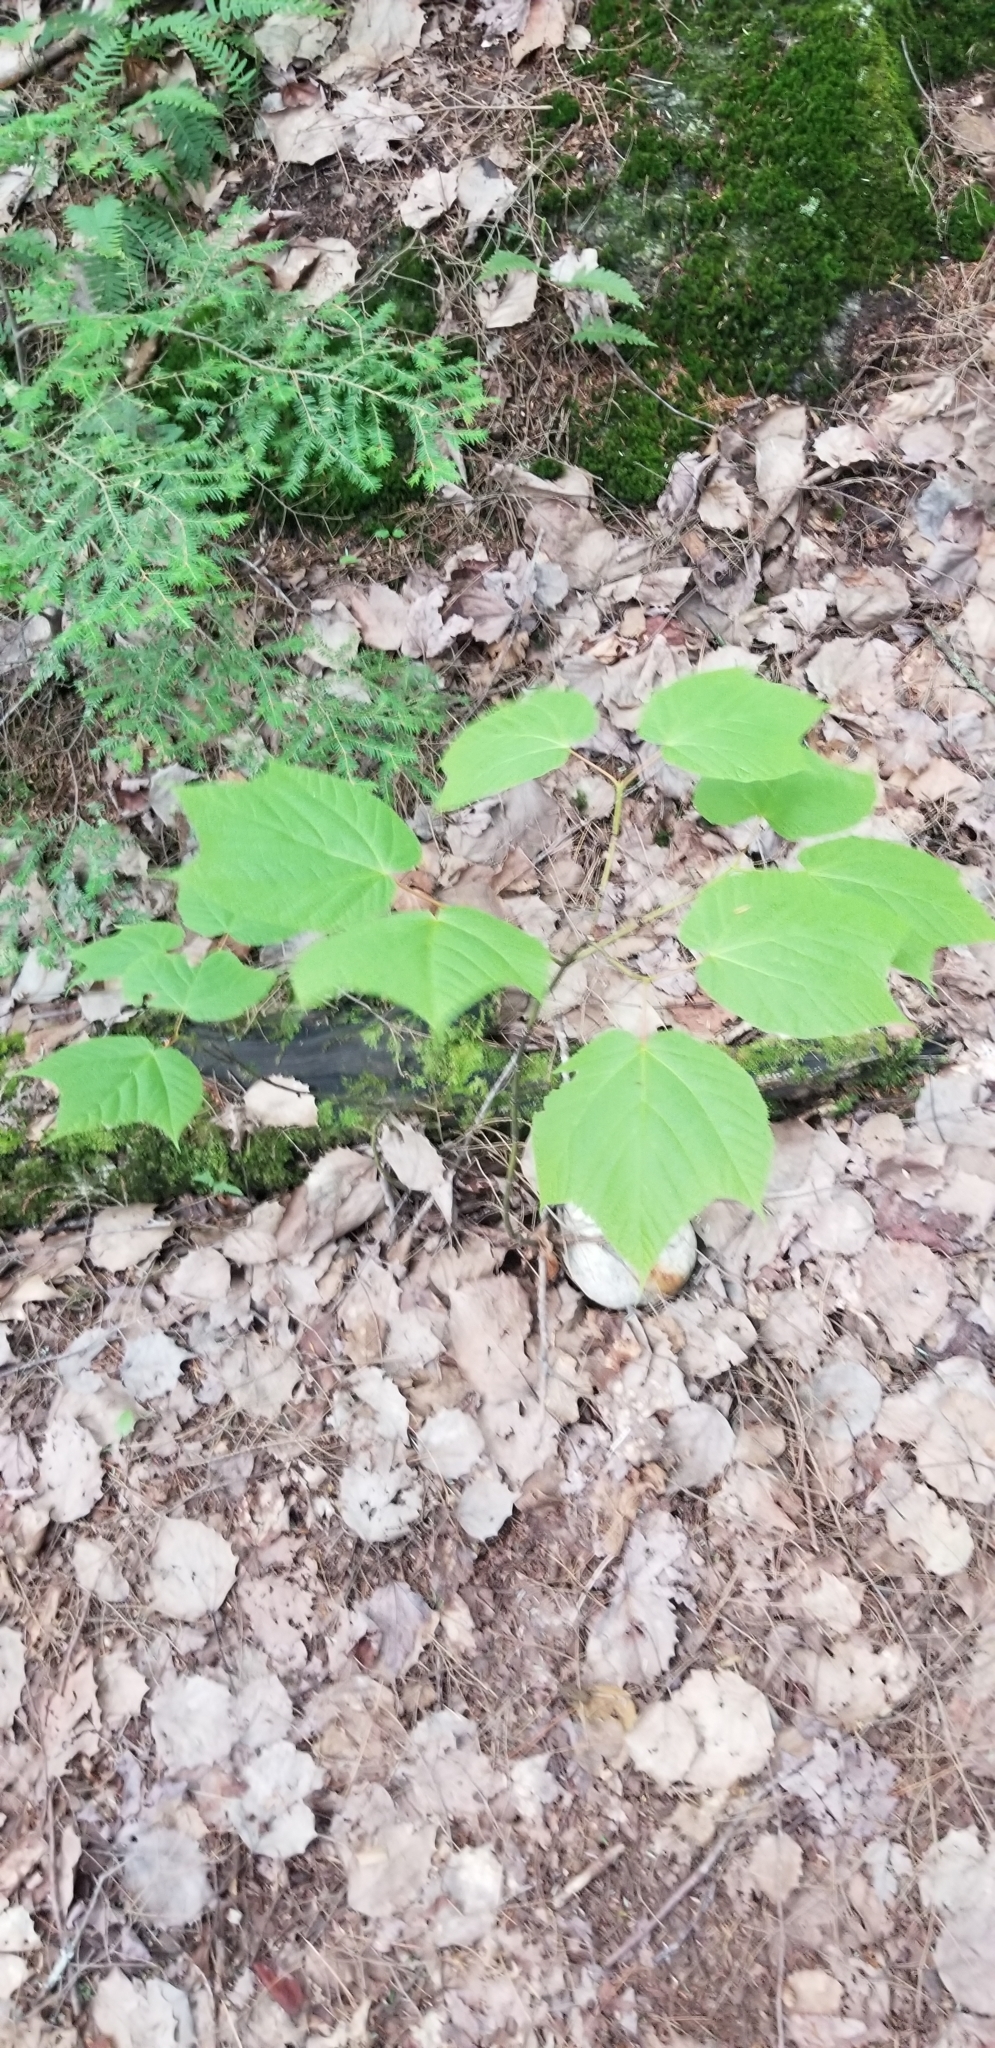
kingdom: Plantae
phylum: Tracheophyta
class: Magnoliopsida
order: Sapindales
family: Sapindaceae
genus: Acer
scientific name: Acer pensylvanicum
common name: Moosewood
